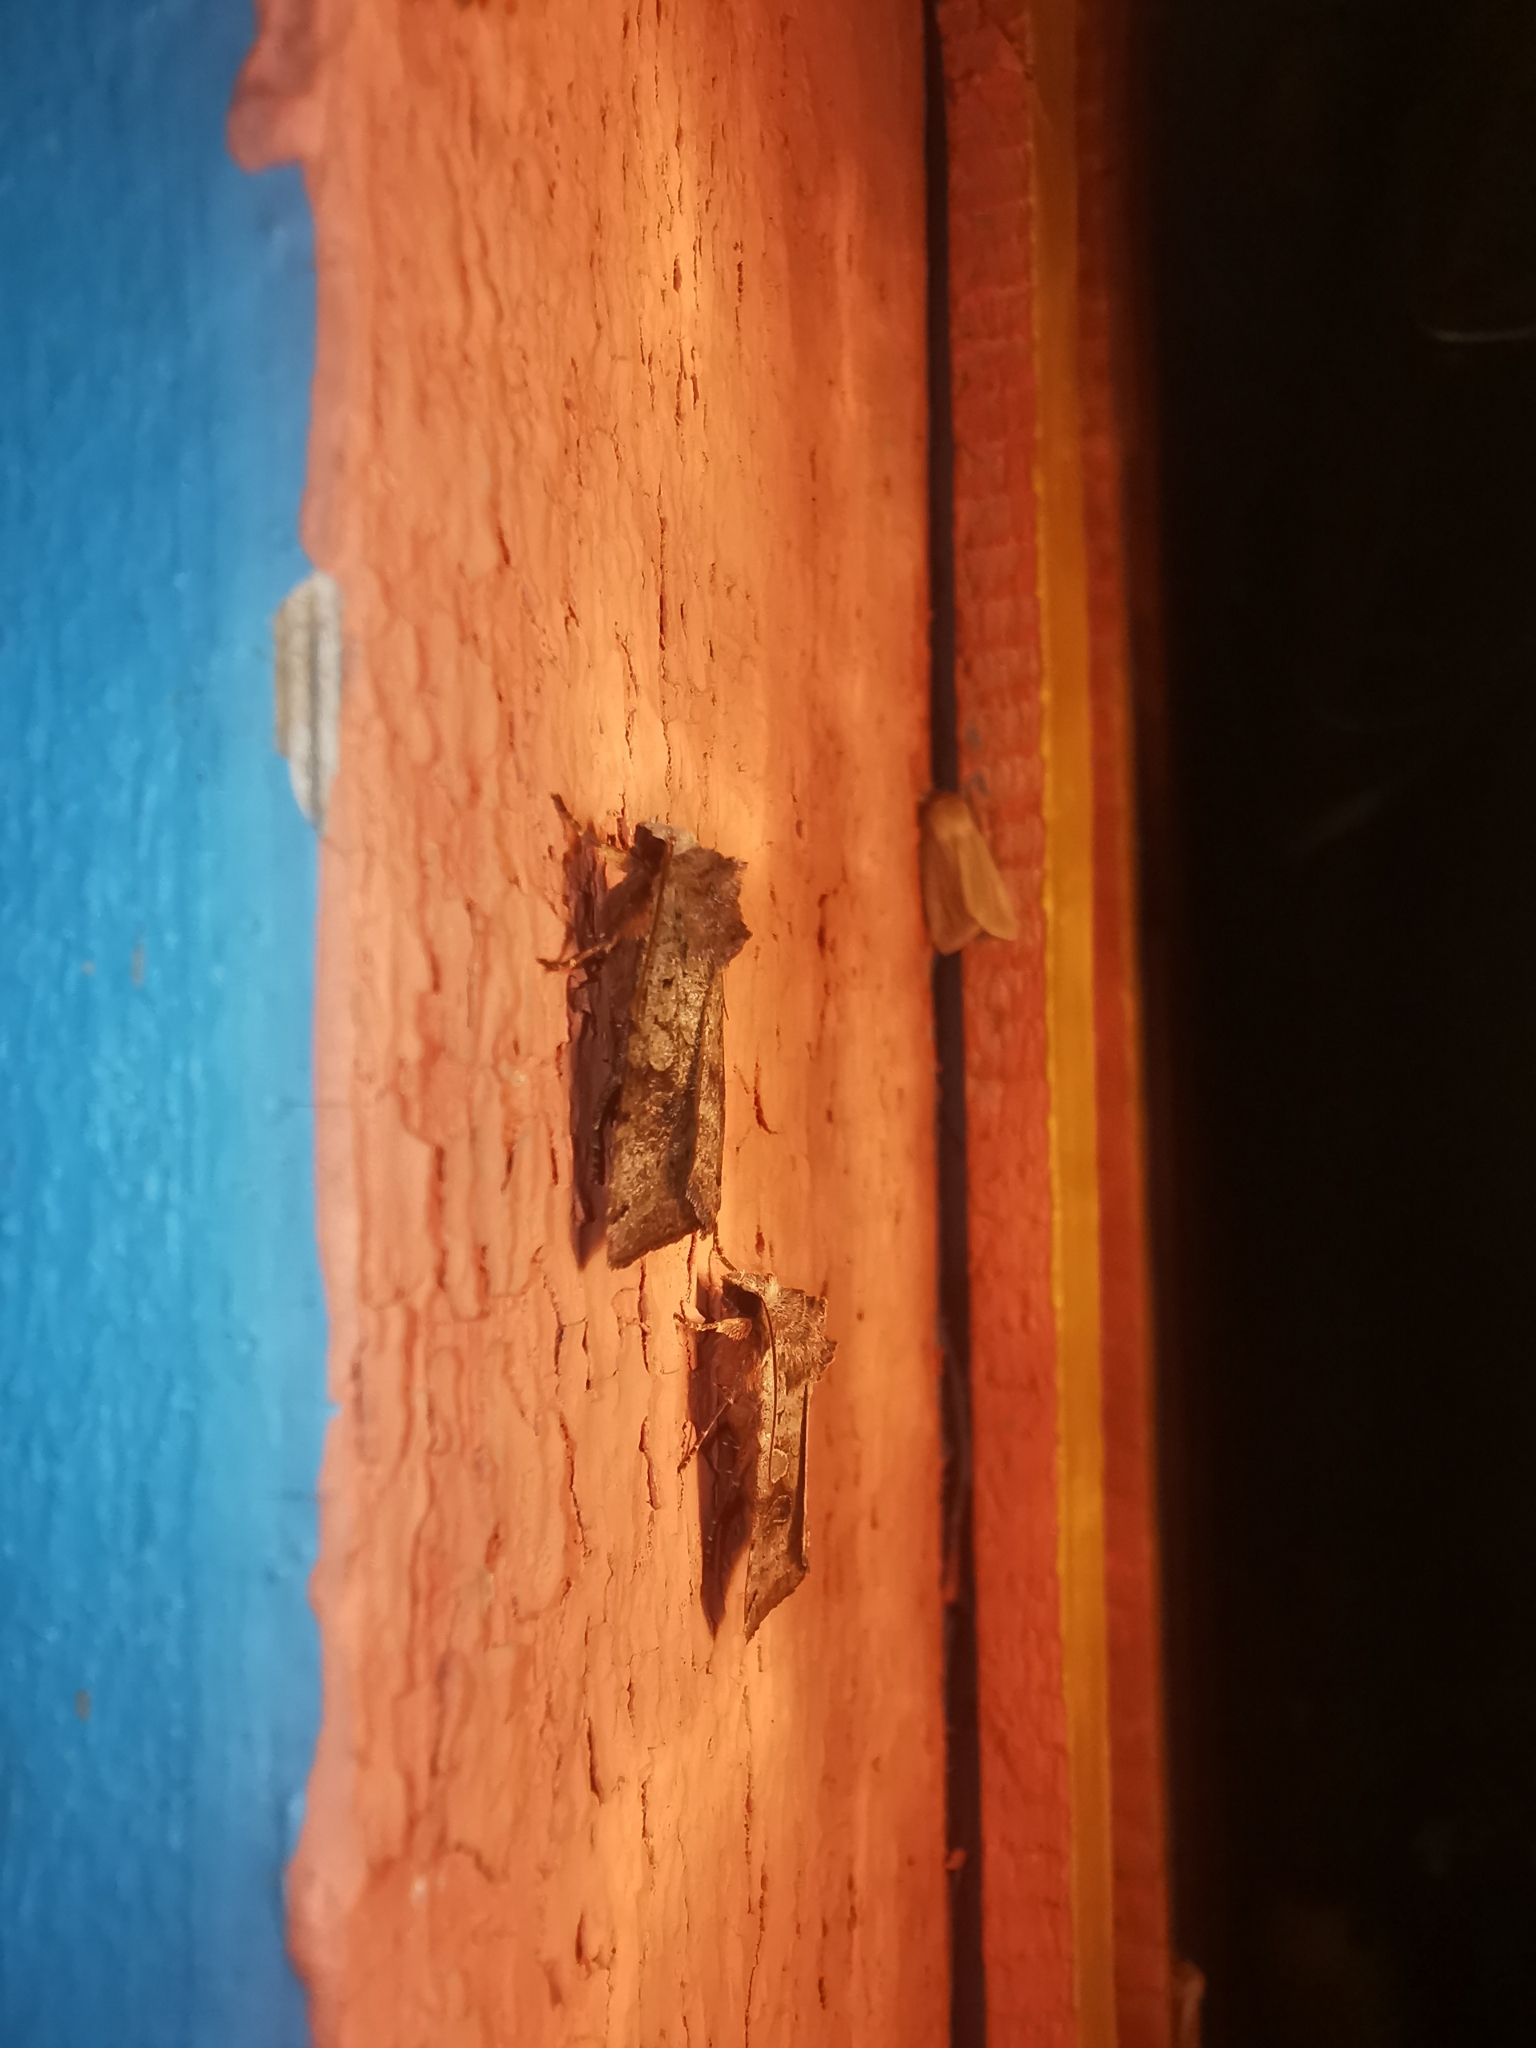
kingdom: Animalia
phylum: Arthropoda
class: Insecta
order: Lepidoptera
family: Noctuidae
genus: Xestia
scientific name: Xestia baja
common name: Dotted clay
